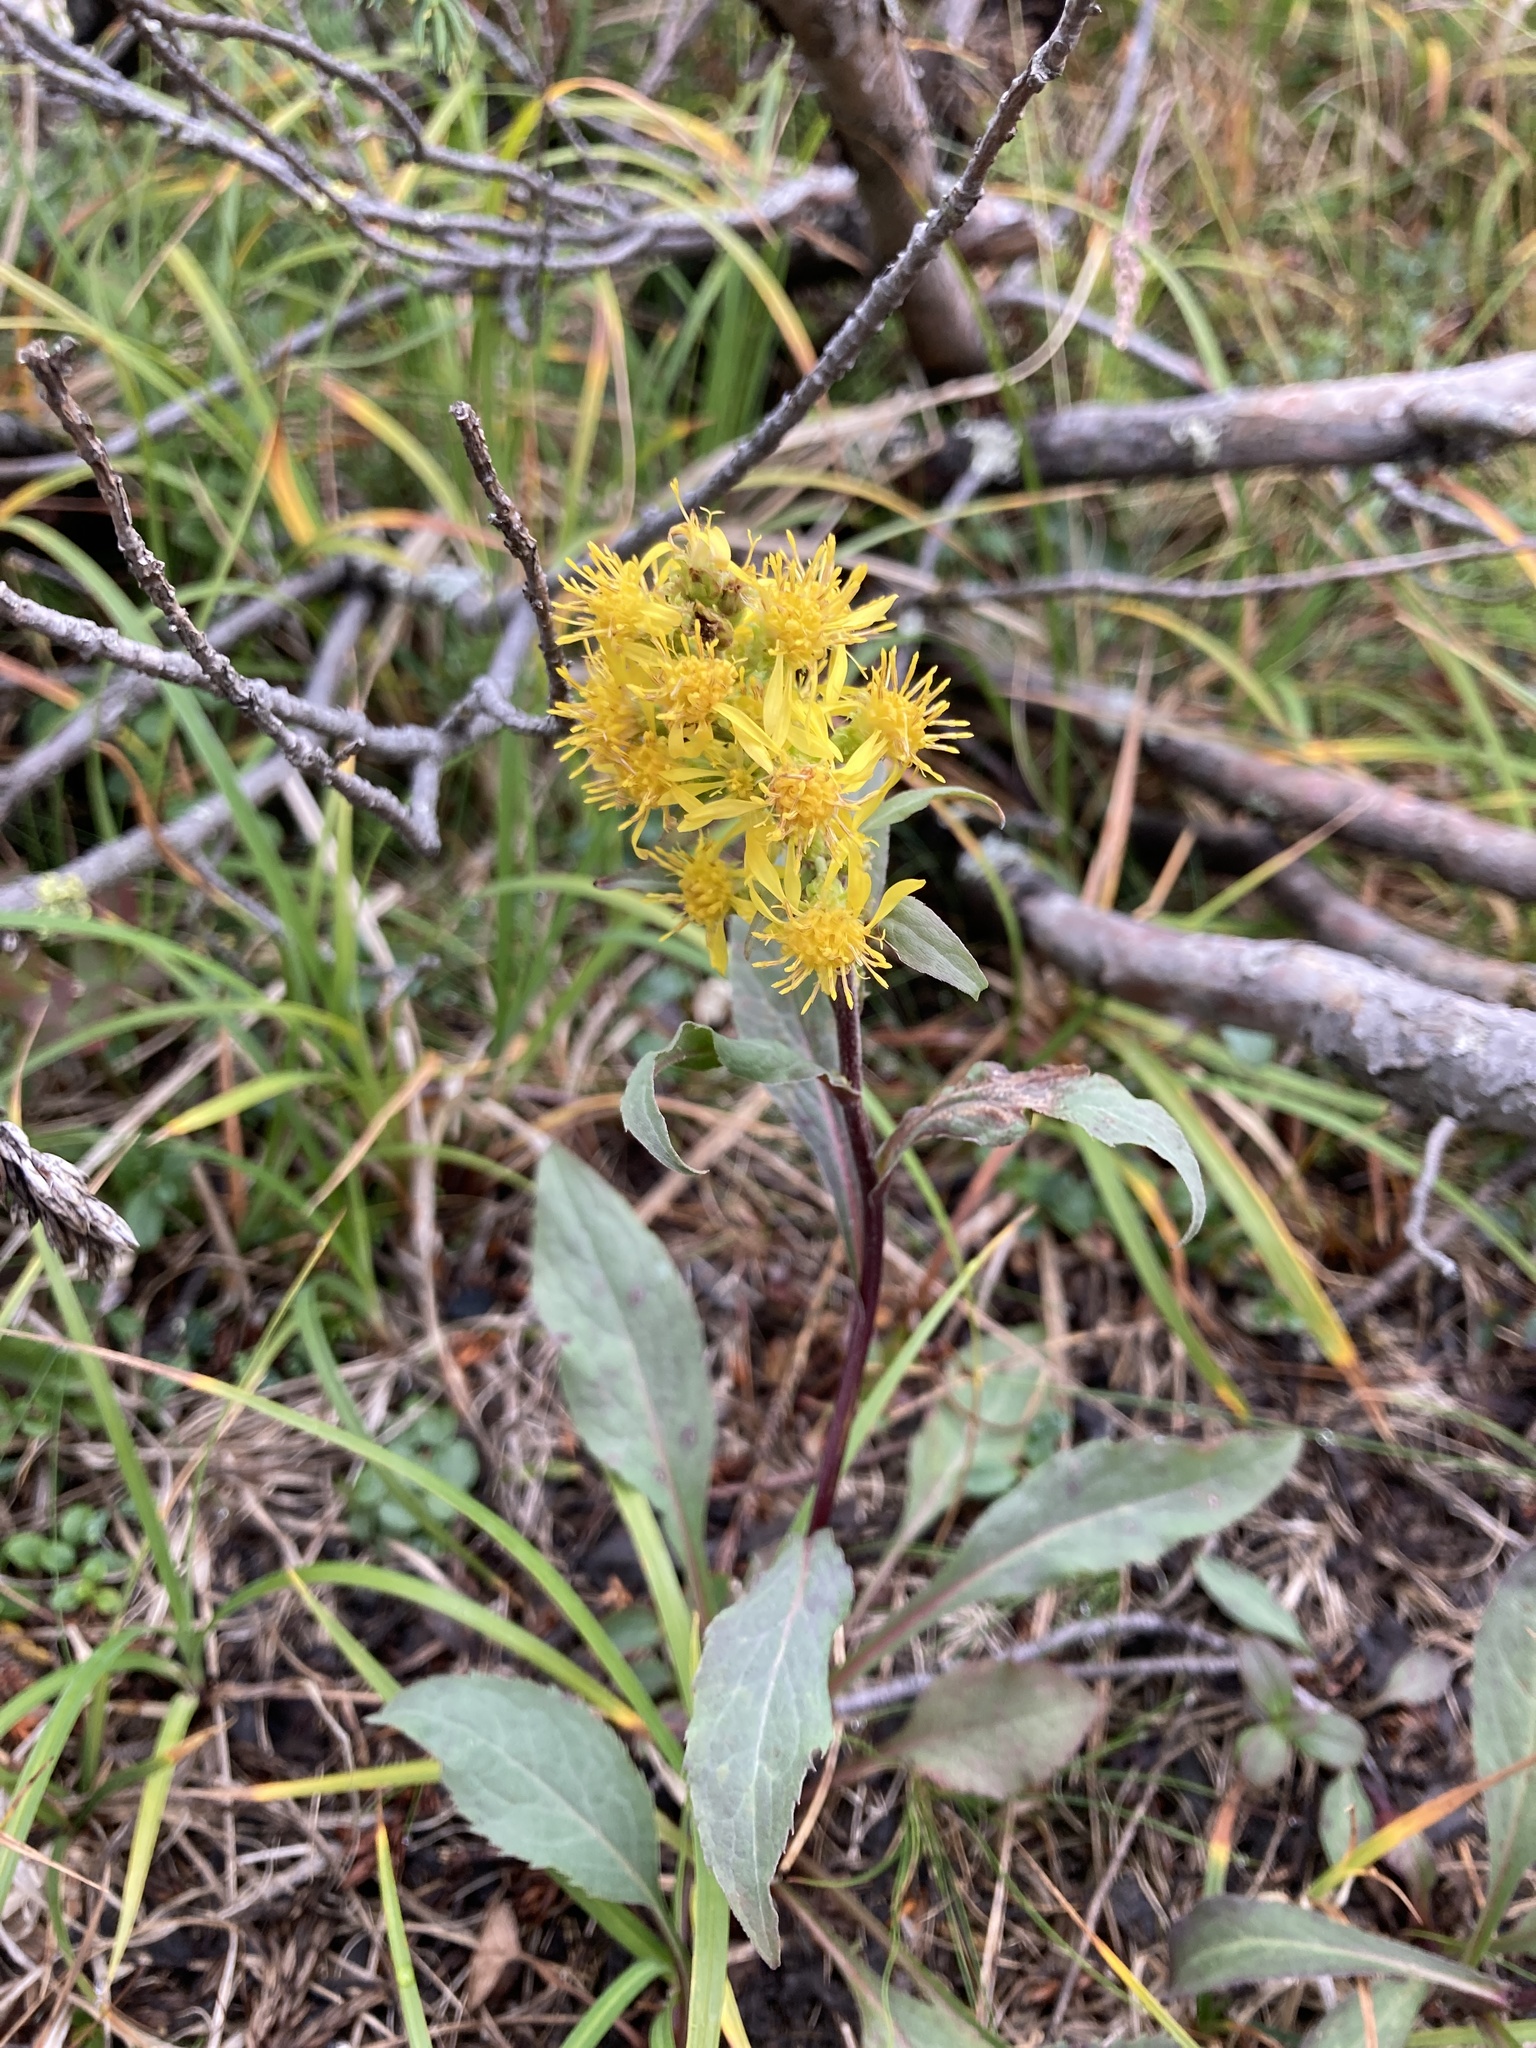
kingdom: Plantae
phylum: Tracheophyta
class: Magnoliopsida
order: Asterales
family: Asteraceae
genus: Solidago
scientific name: Solidago virgaurea
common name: Goldenrod
